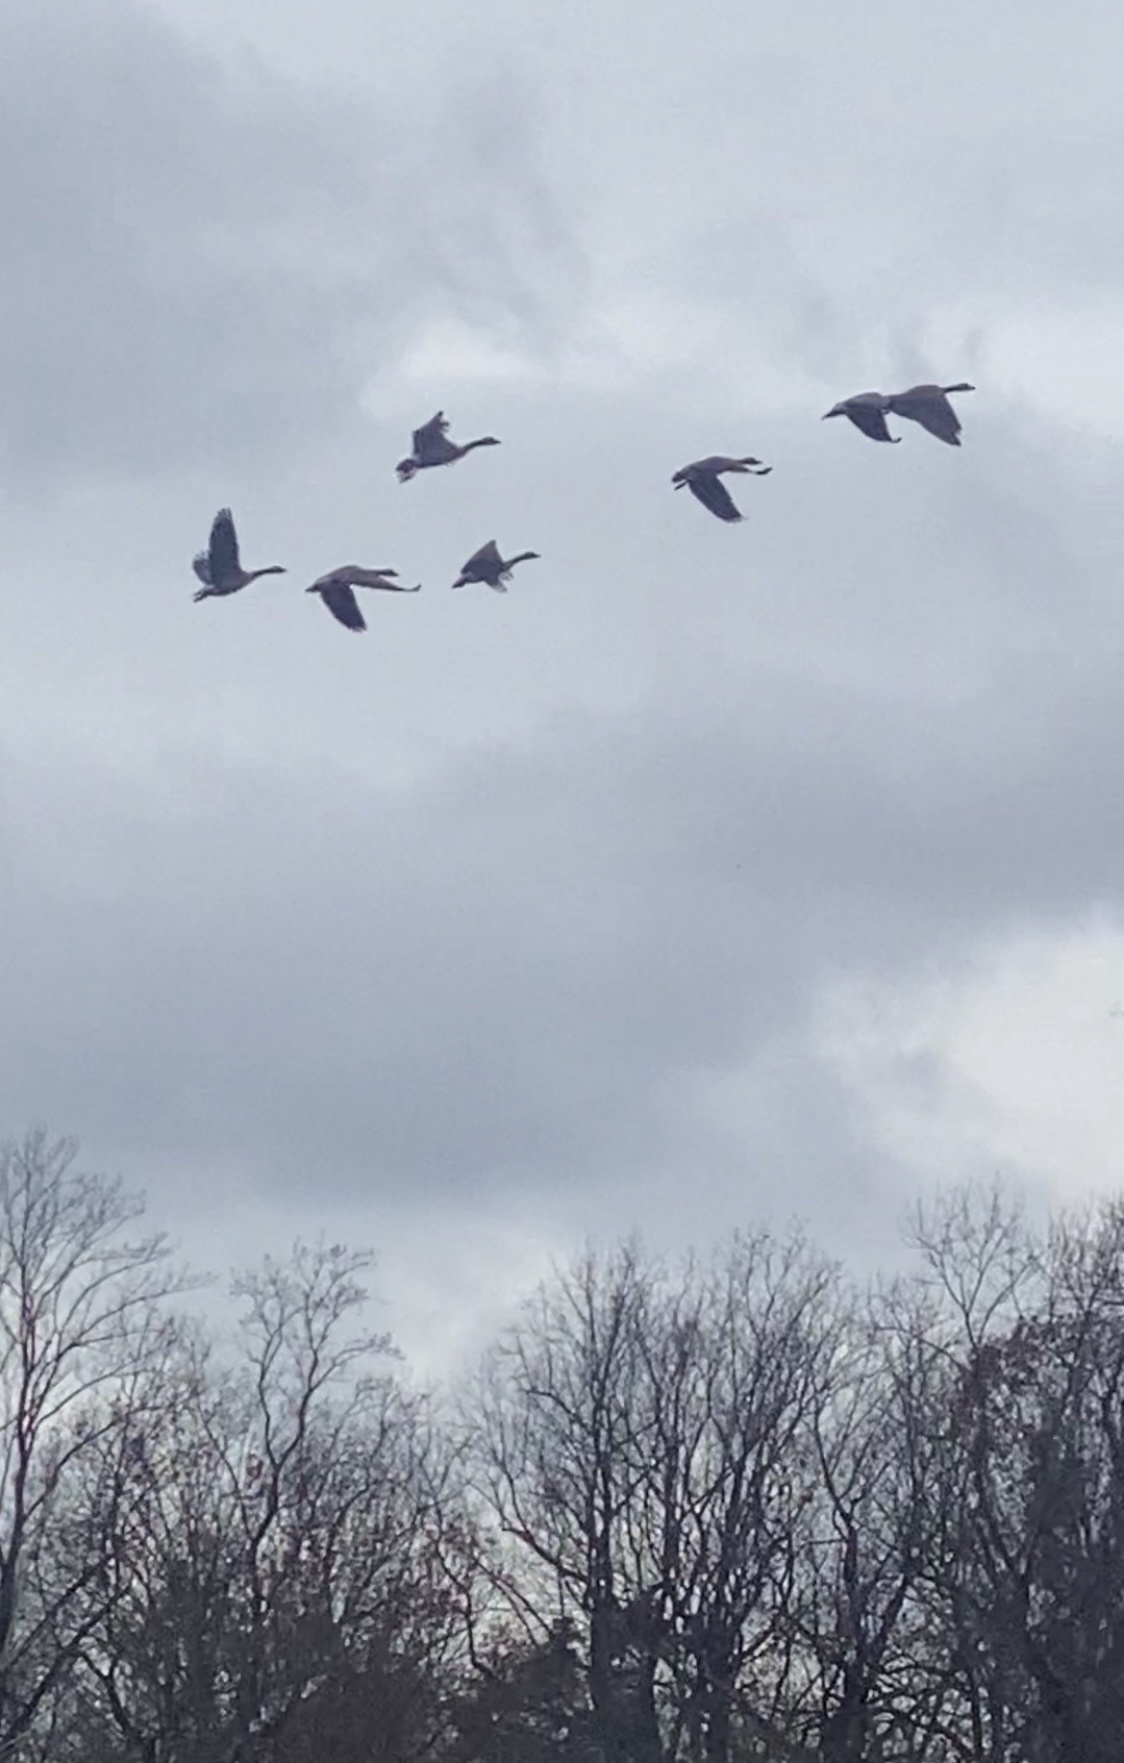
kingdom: Animalia
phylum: Chordata
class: Aves
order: Anseriformes
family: Anatidae
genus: Branta
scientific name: Branta canadensis
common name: Canada goose
